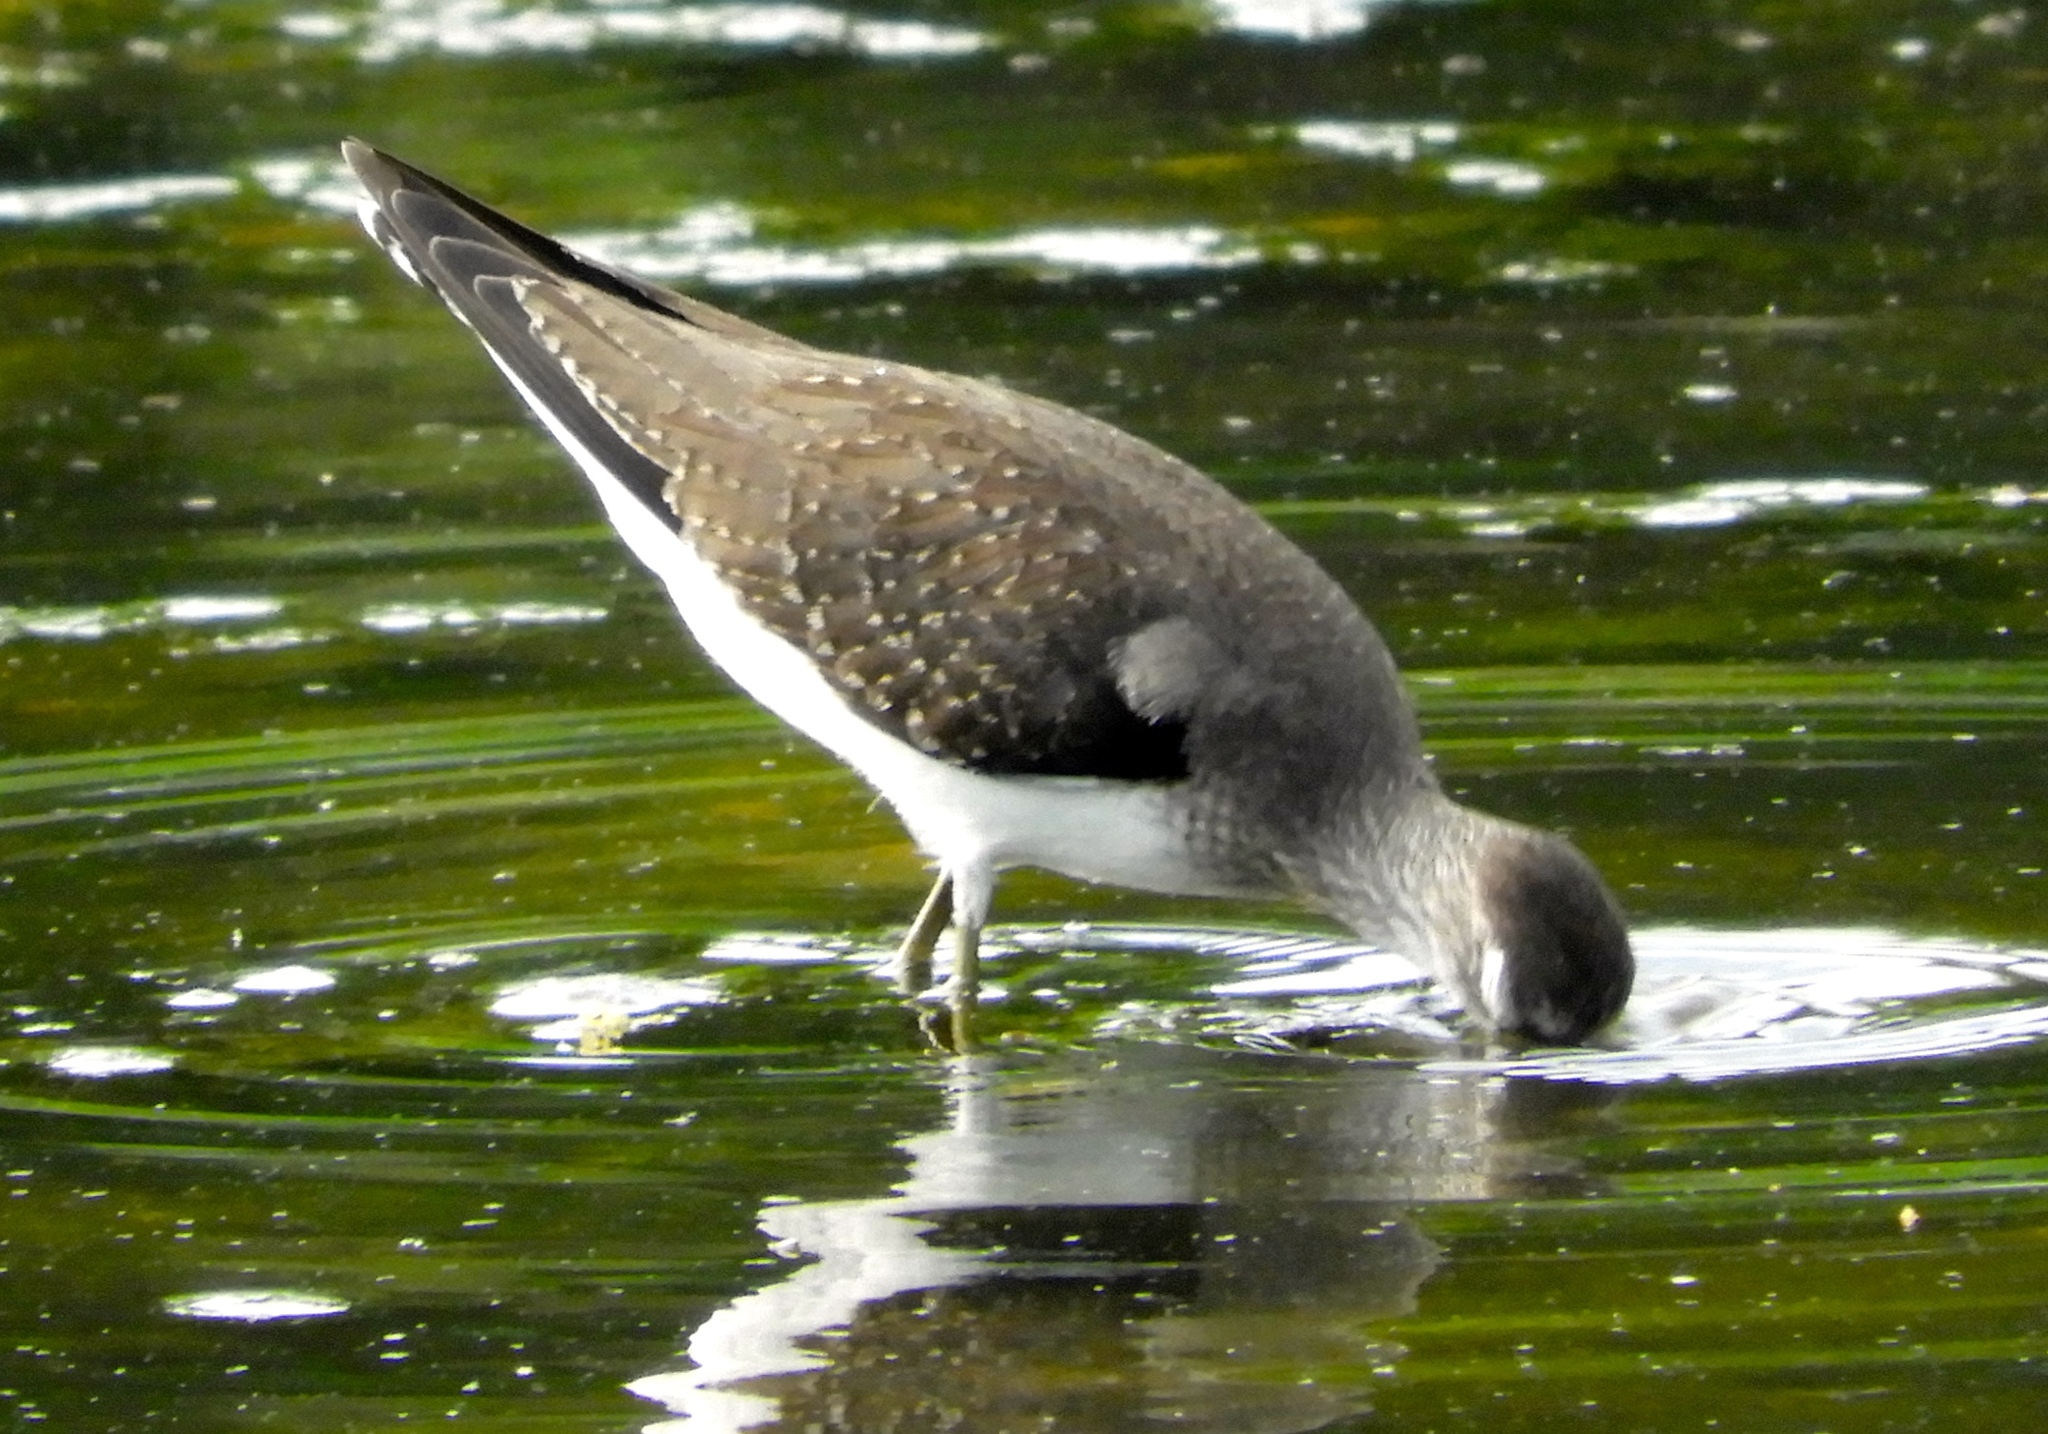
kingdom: Animalia
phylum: Chordata
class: Aves
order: Charadriiformes
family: Scolopacidae
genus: Tringa
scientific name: Tringa solitaria
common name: Solitary sandpiper
